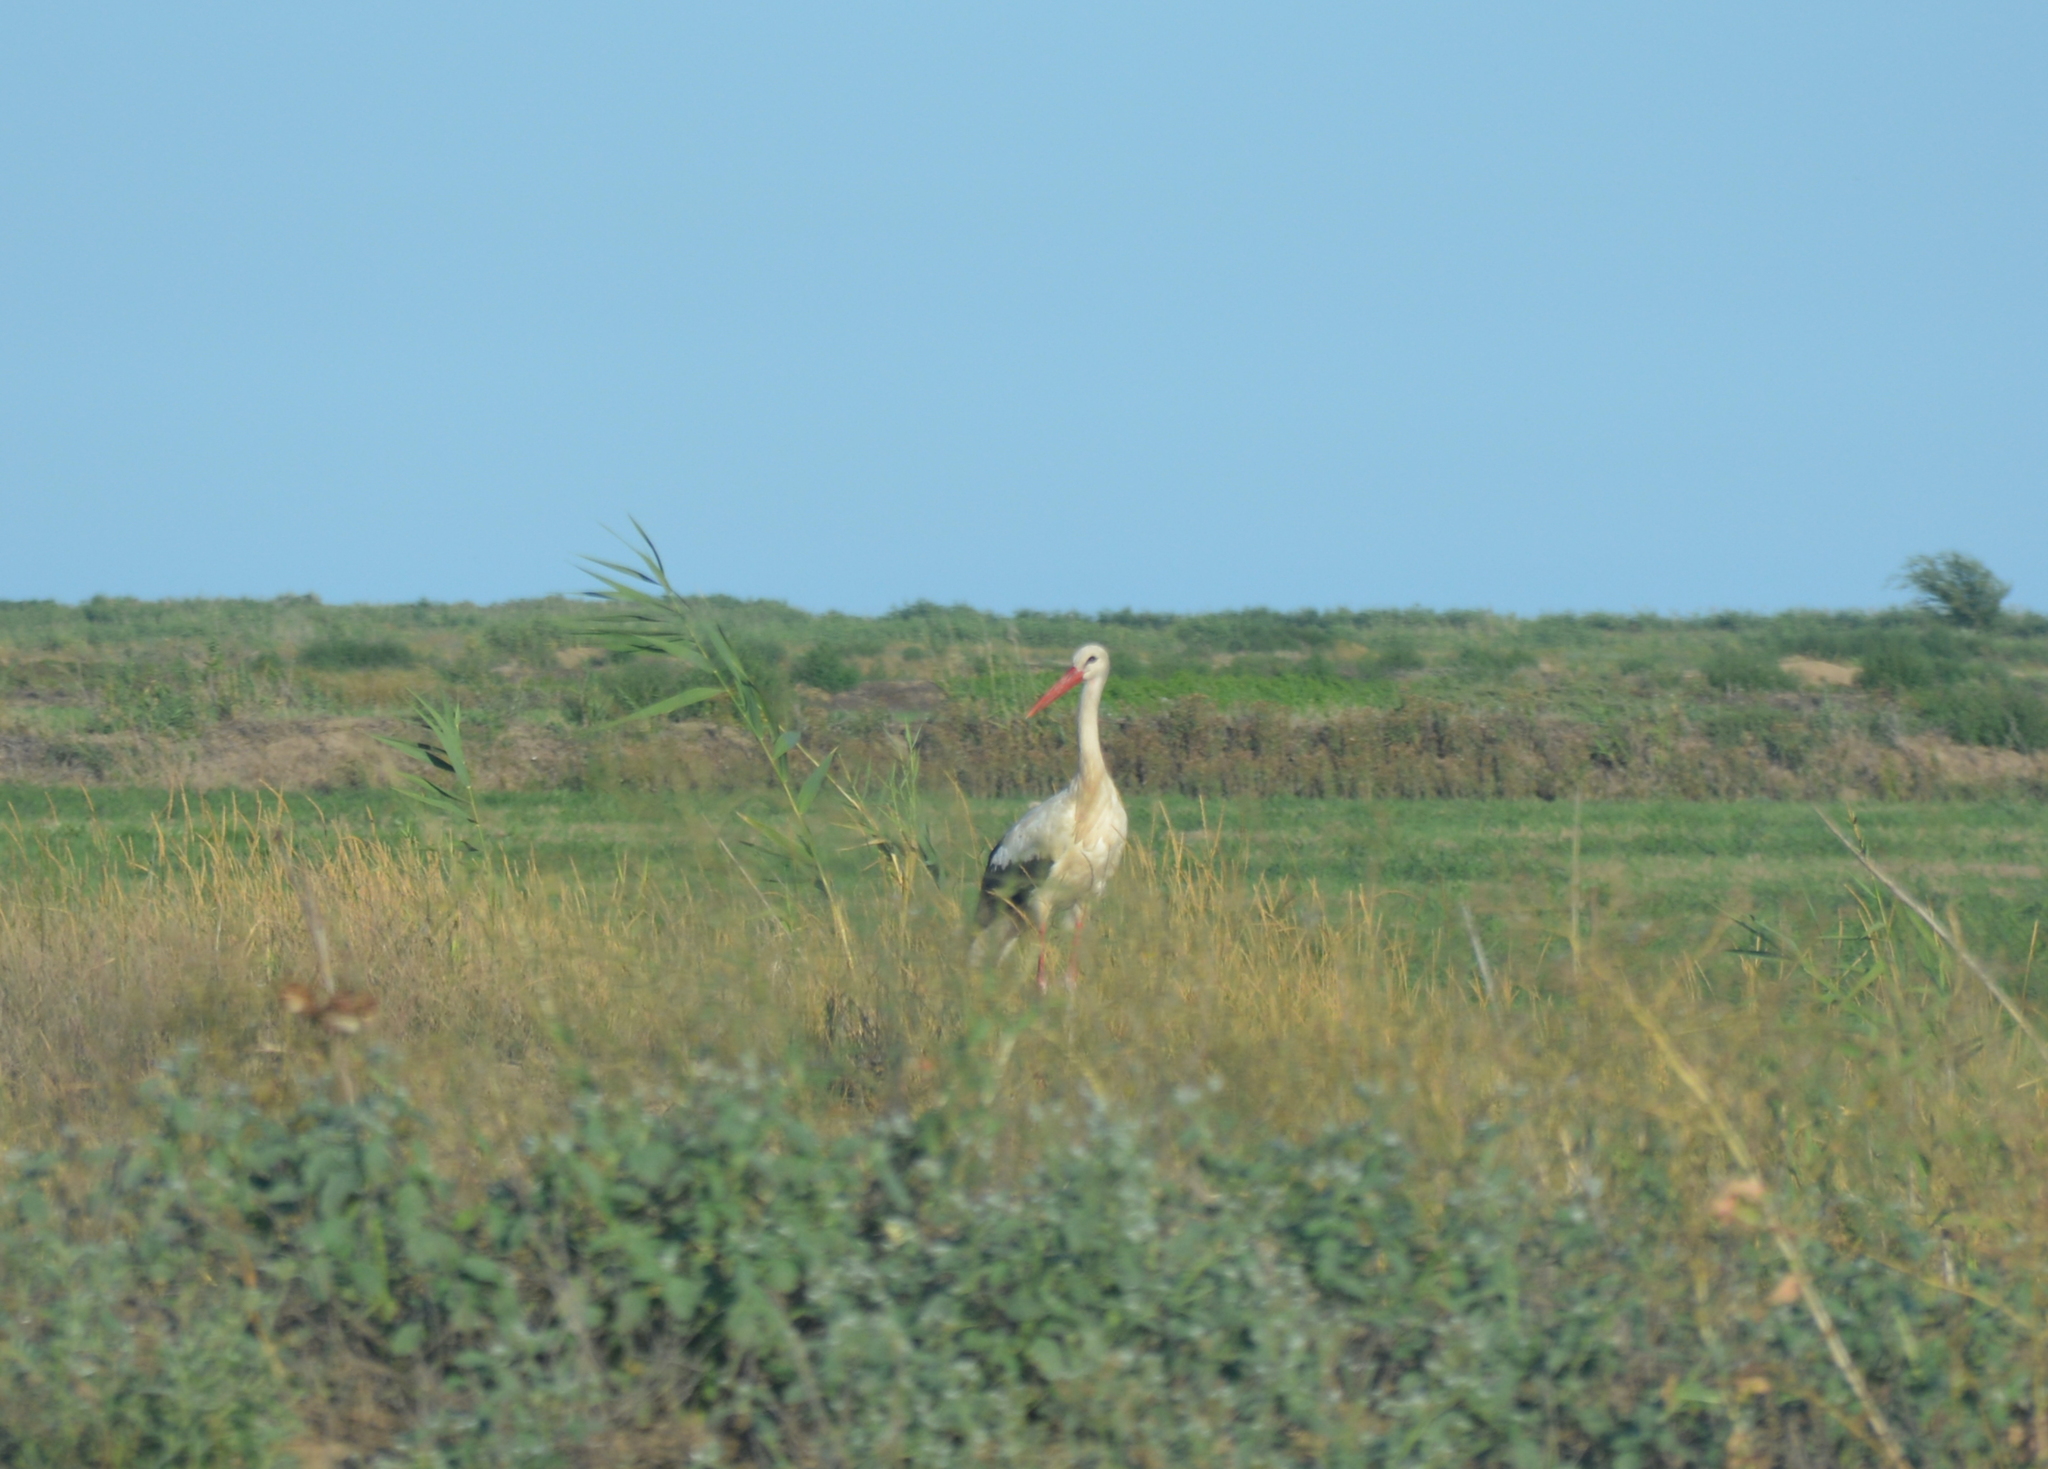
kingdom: Animalia
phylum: Chordata
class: Aves
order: Ciconiiformes
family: Ciconiidae
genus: Ciconia
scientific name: Ciconia ciconia
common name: White stork
